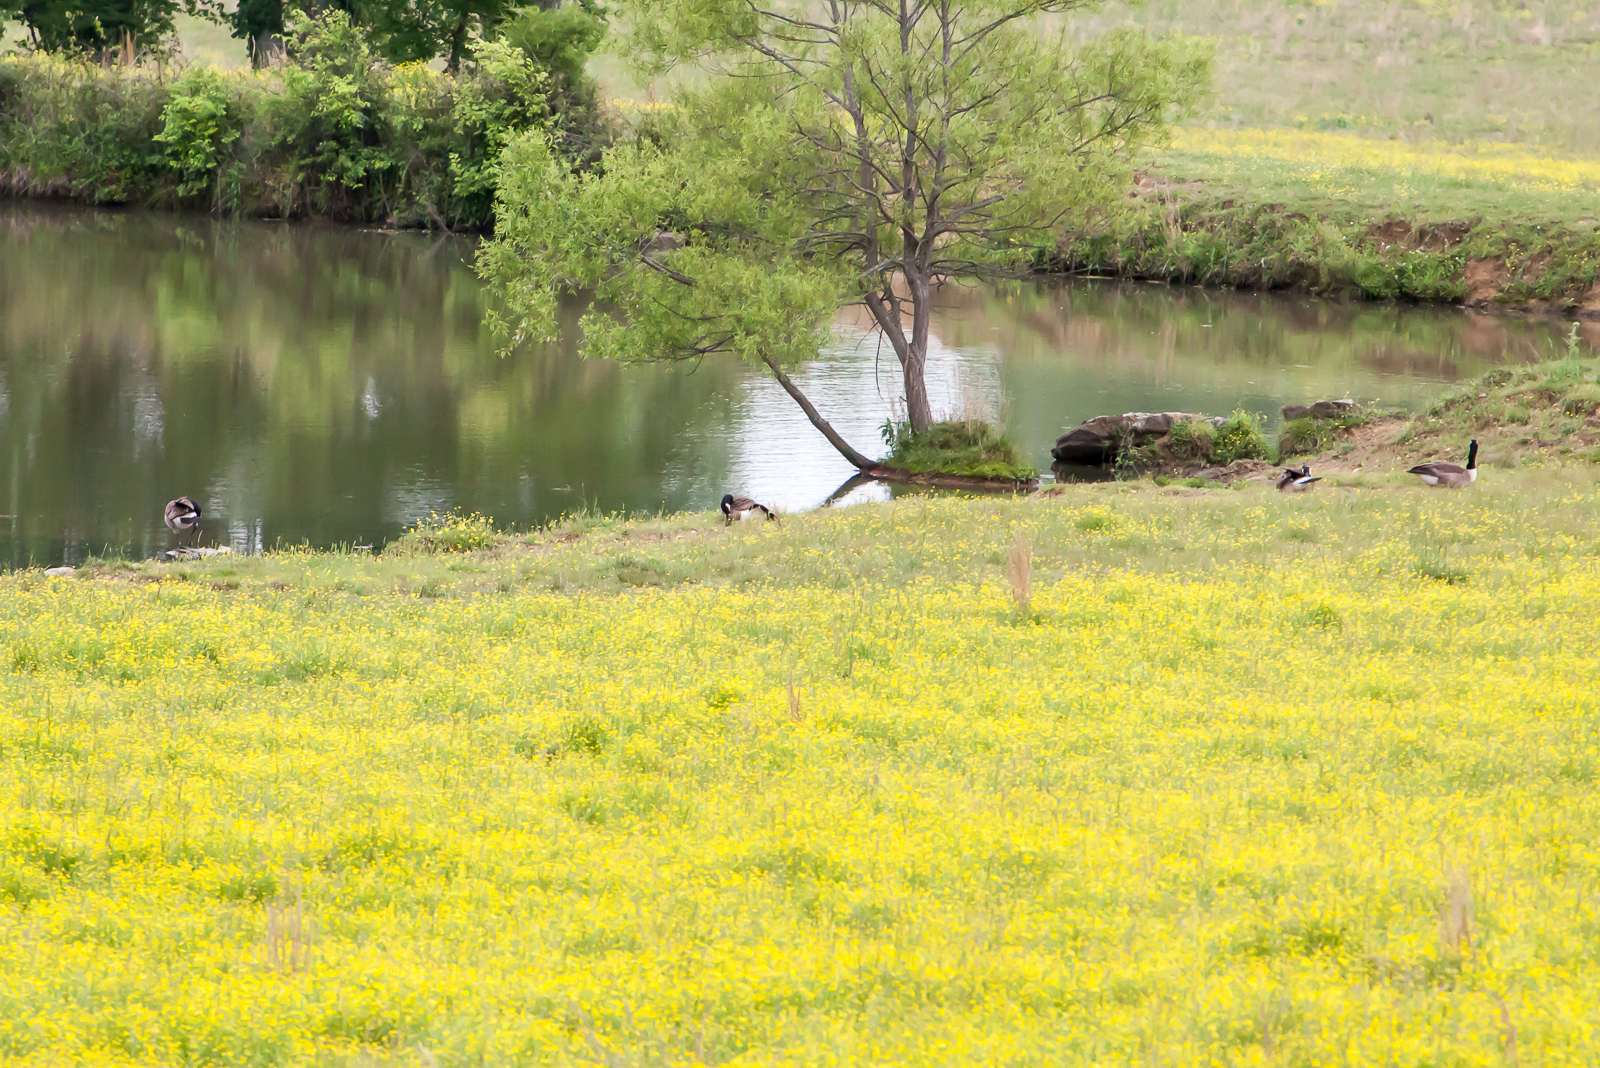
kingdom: Animalia
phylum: Chordata
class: Aves
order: Anseriformes
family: Anatidae
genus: Branta
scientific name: Branta canadensis
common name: Canada goose
